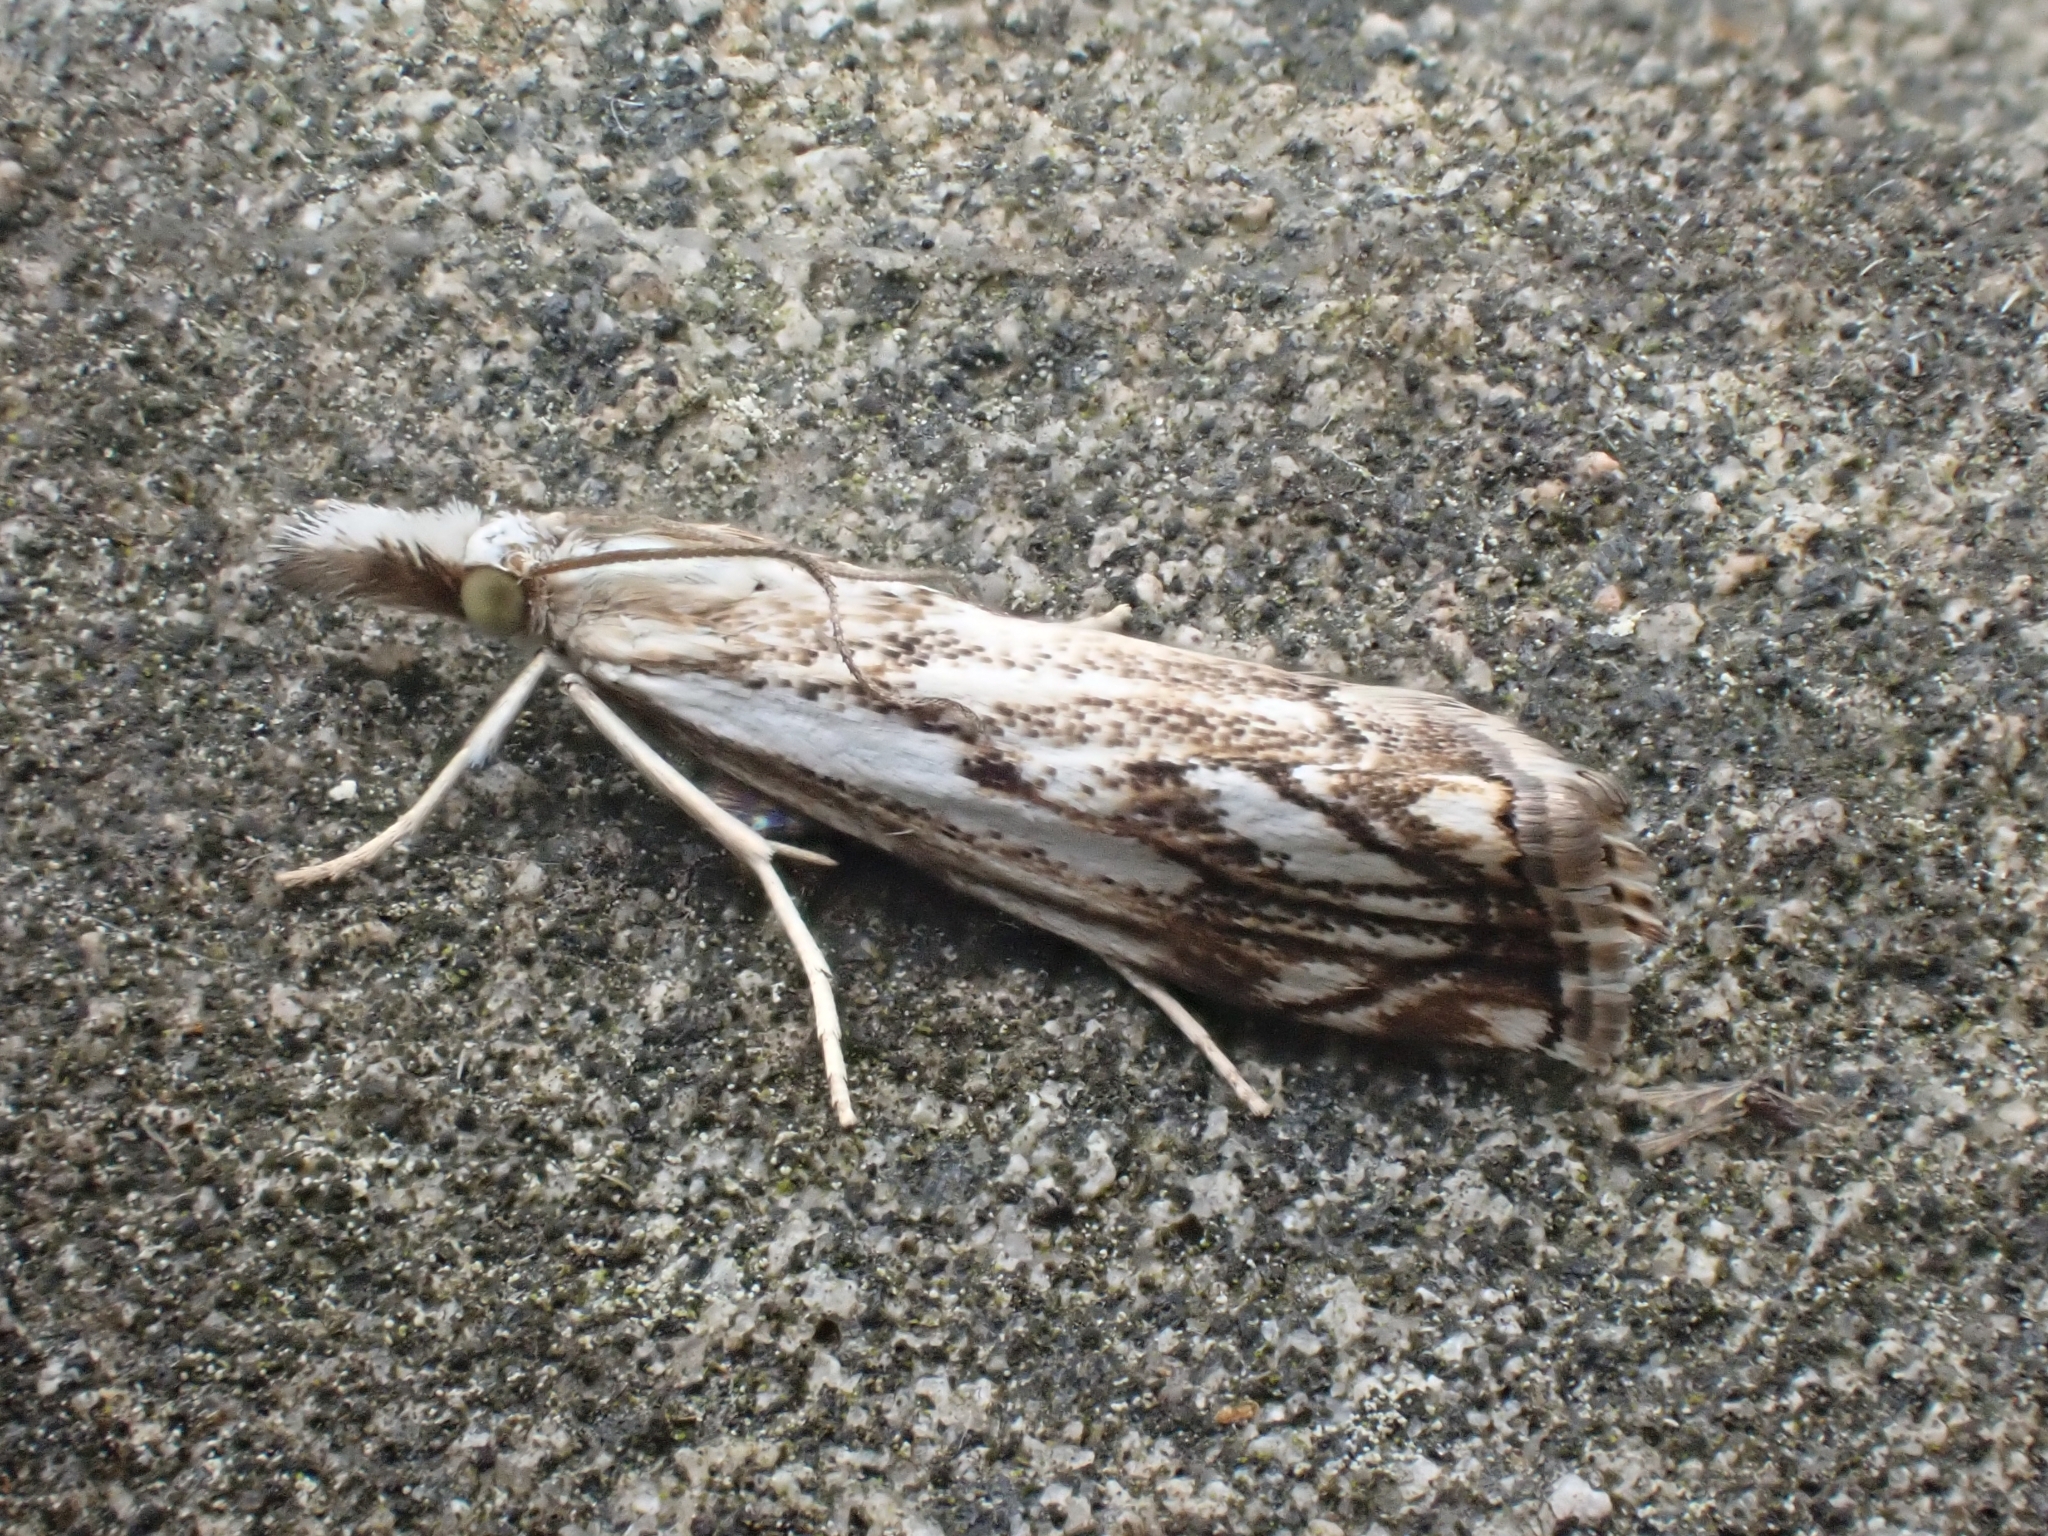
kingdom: Animalia
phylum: Arthropoda
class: Insecta
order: Lepidoptera
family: Crambidae
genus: Catoptria
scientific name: Catoptria falsella
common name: Chequered grass-veneer
